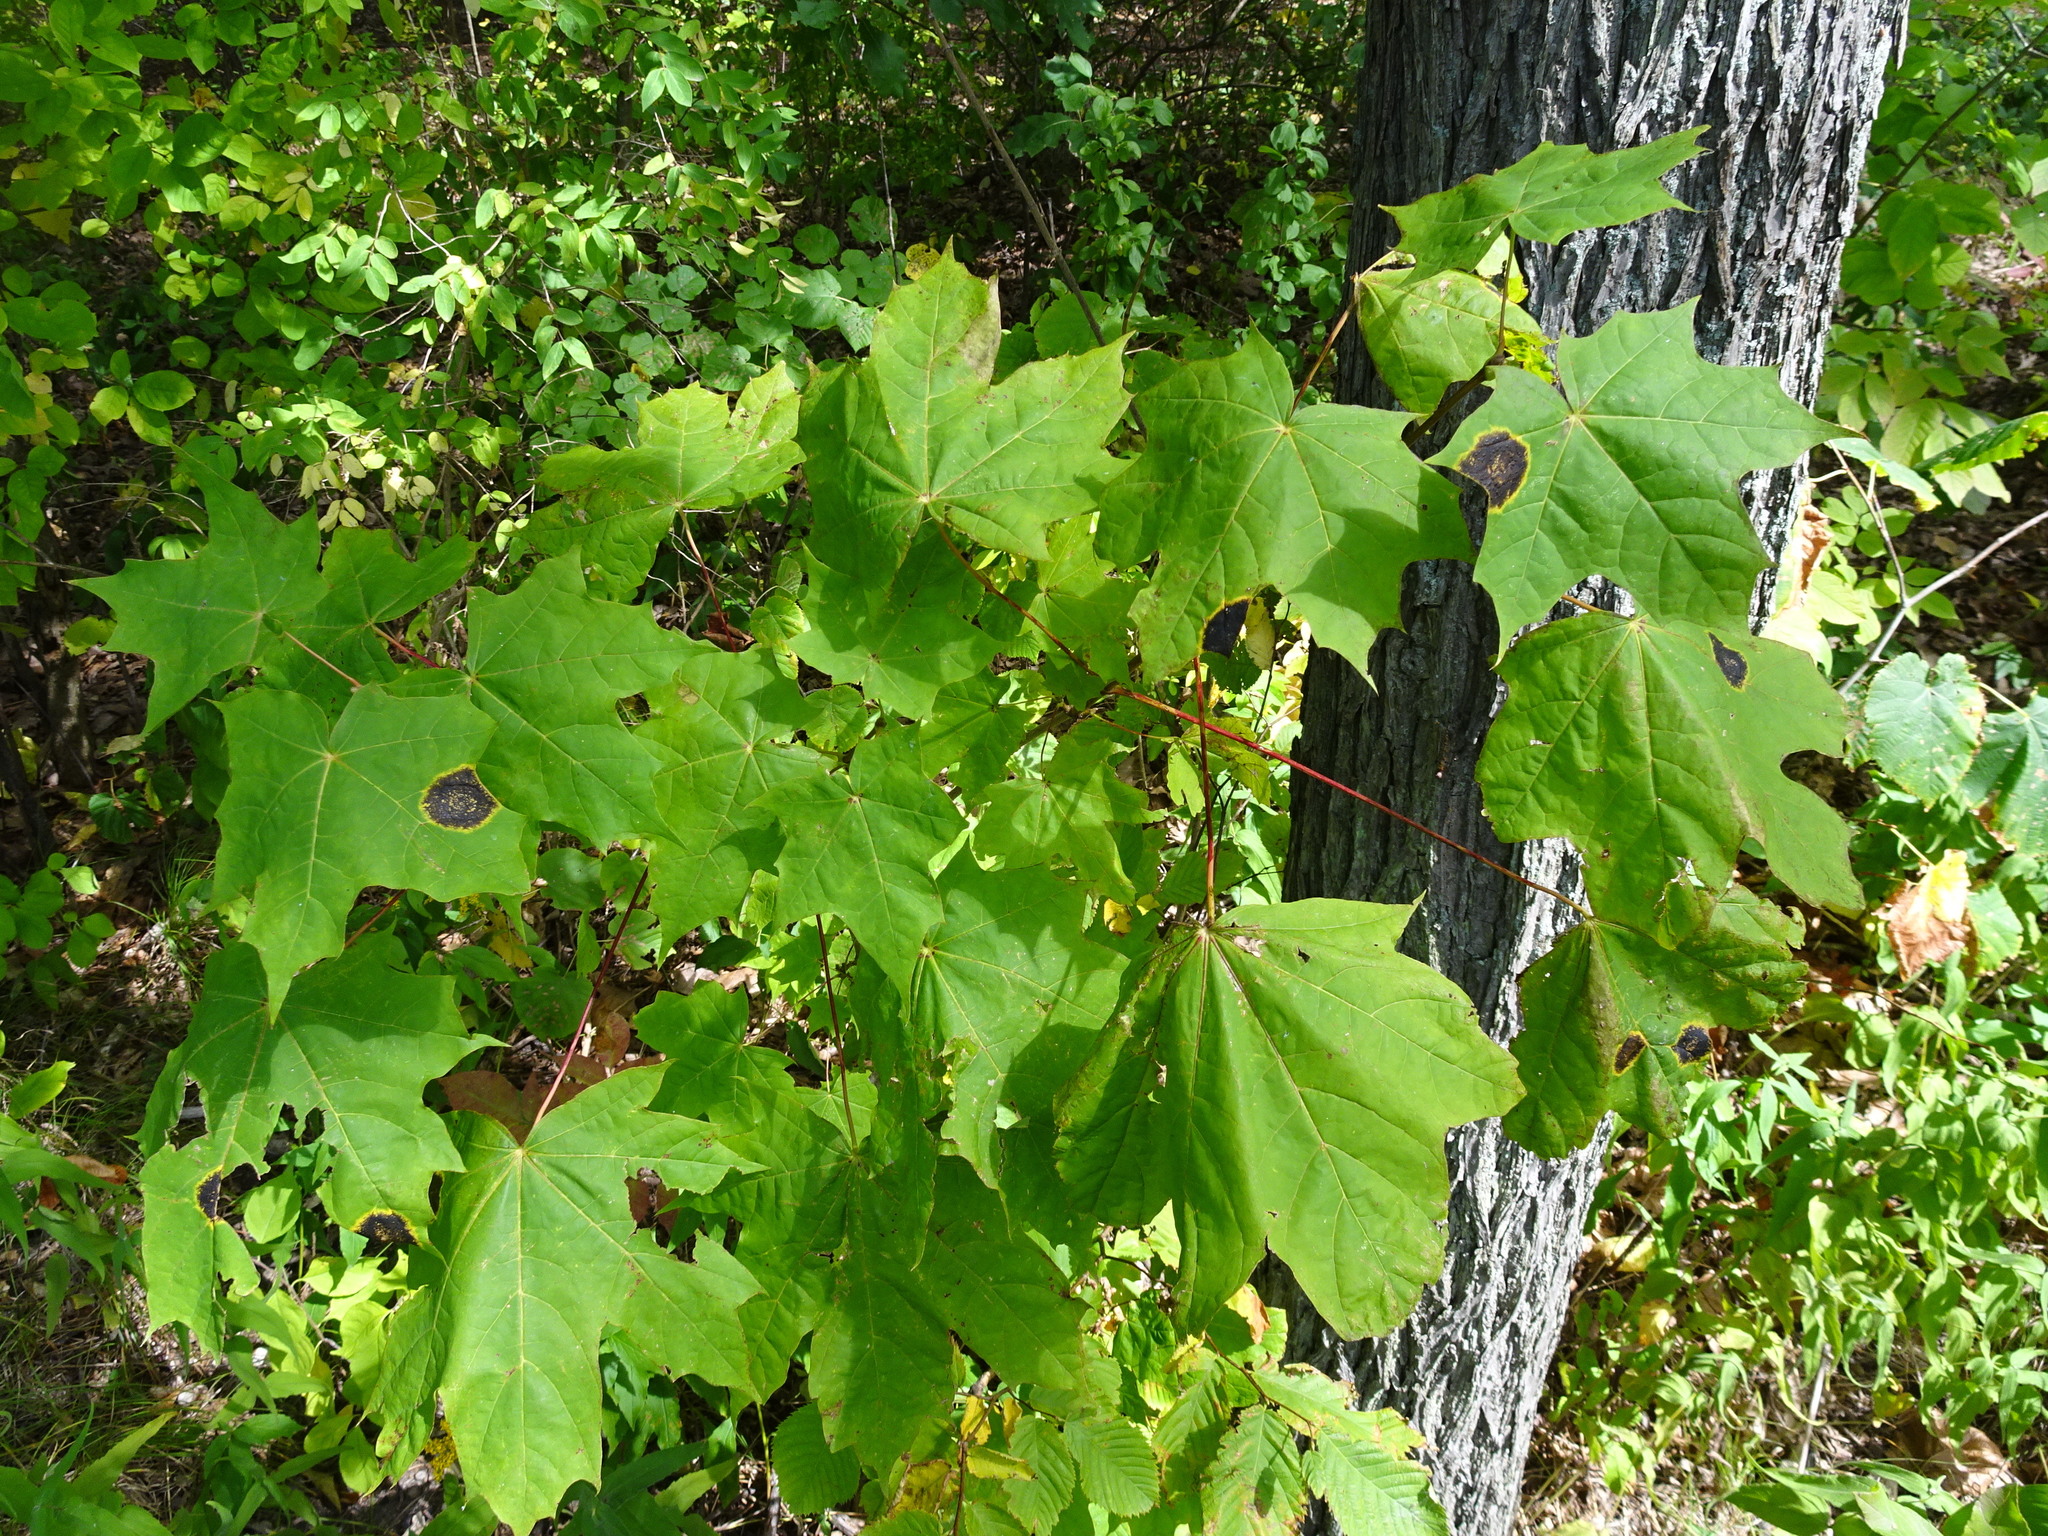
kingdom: Plantae
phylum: Tracheophyta
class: Magnoliopsida
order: Sapindales
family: Sapindaceae
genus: Acer
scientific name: Acer platanoides
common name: Norway maple
